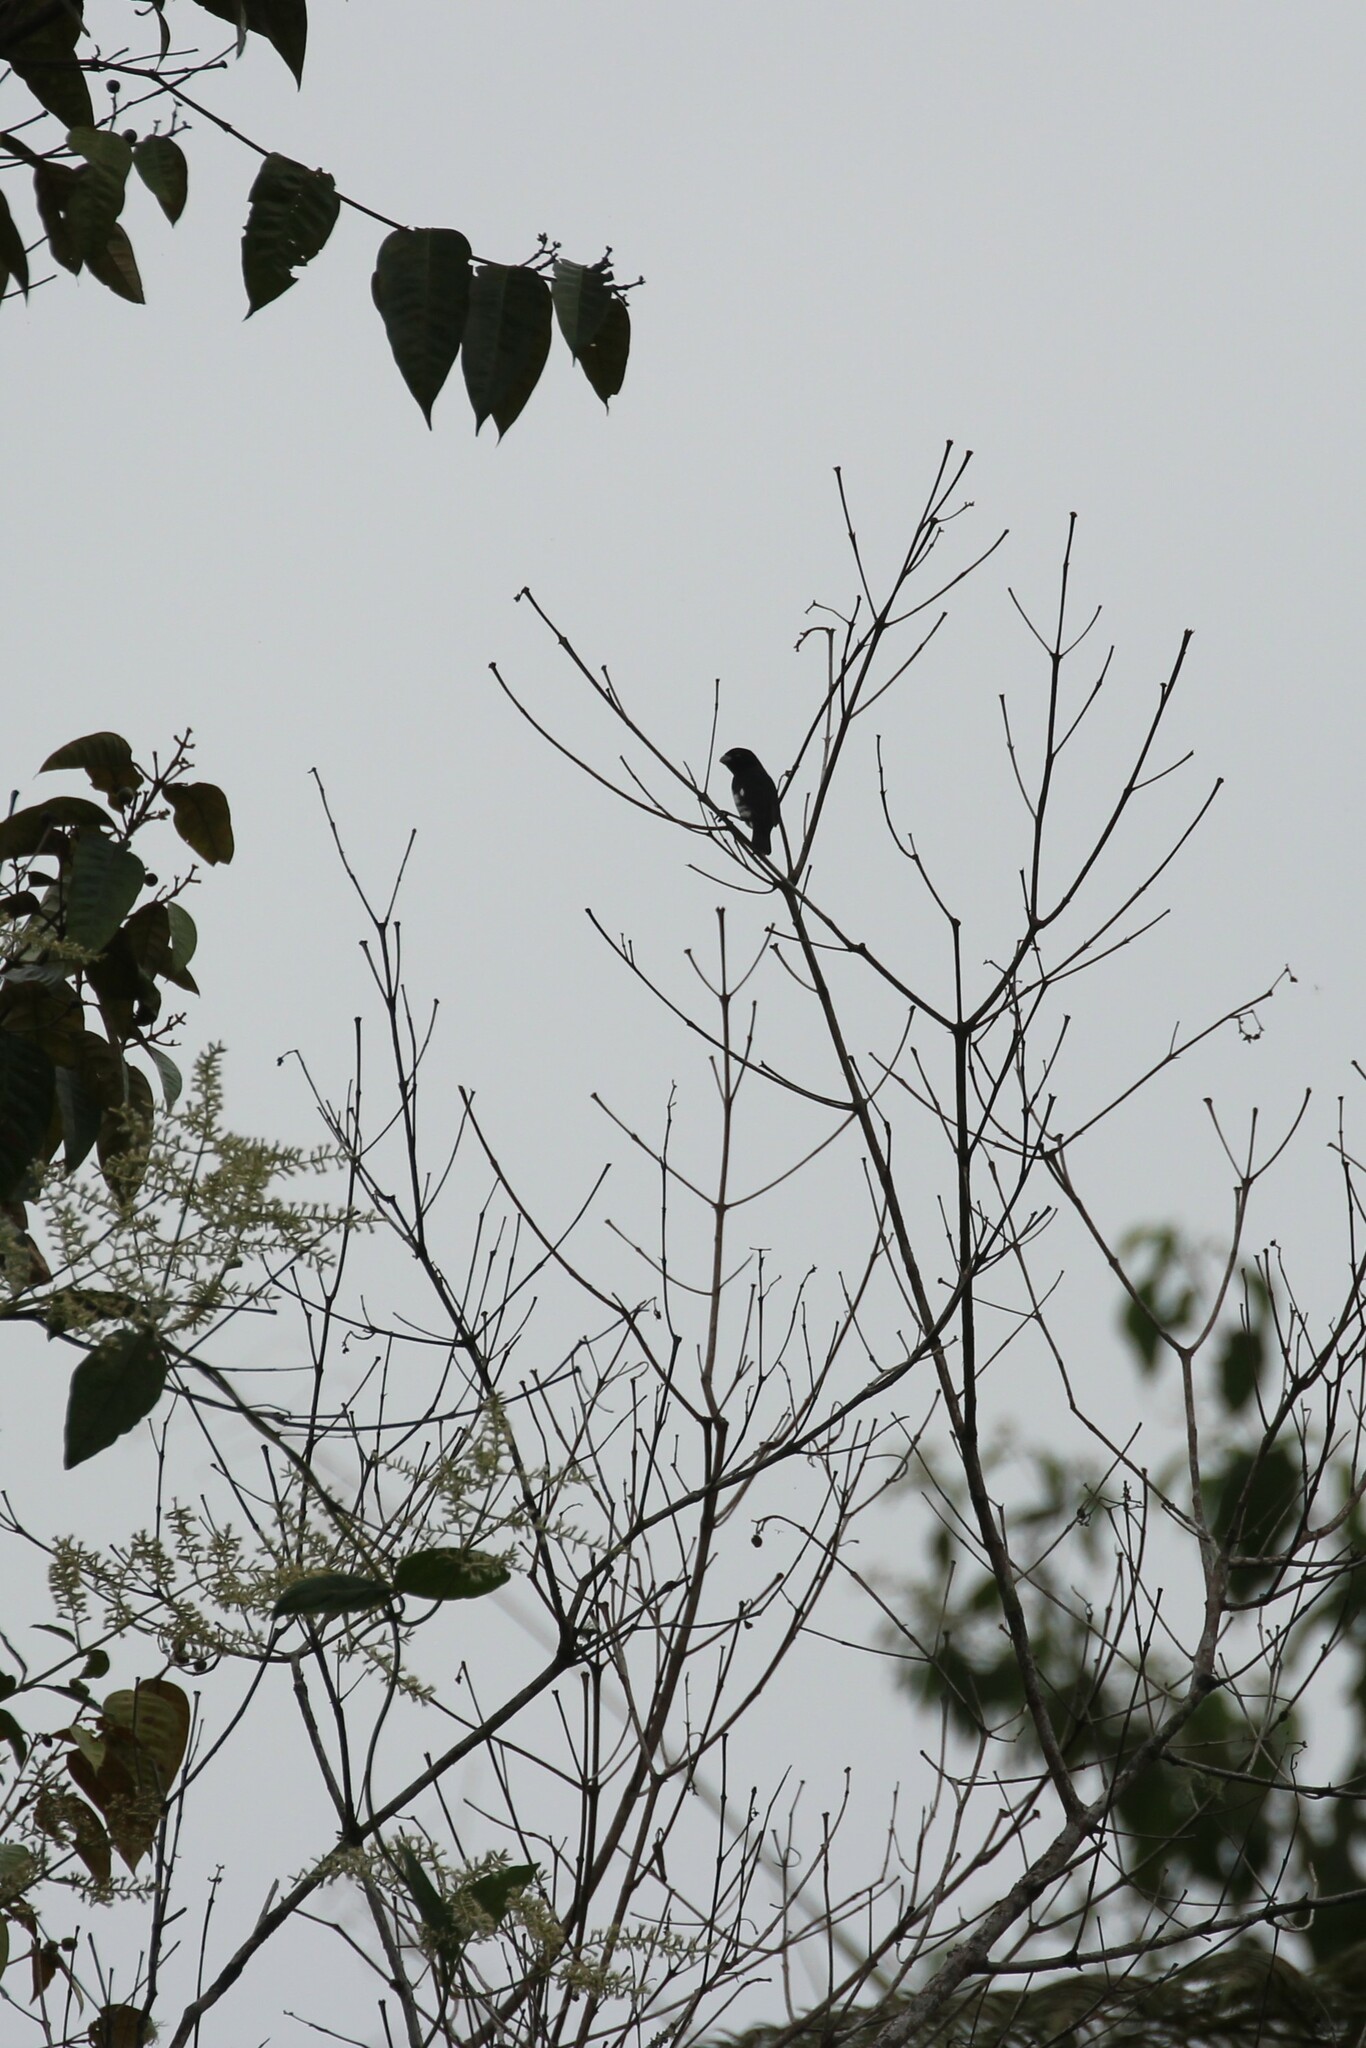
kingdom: Animalia
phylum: Chordata
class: Aves
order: Passeriformes
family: Thraupidae
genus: Sporophila
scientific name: Sporophila luctuosa
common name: Black-and-white seedeater
